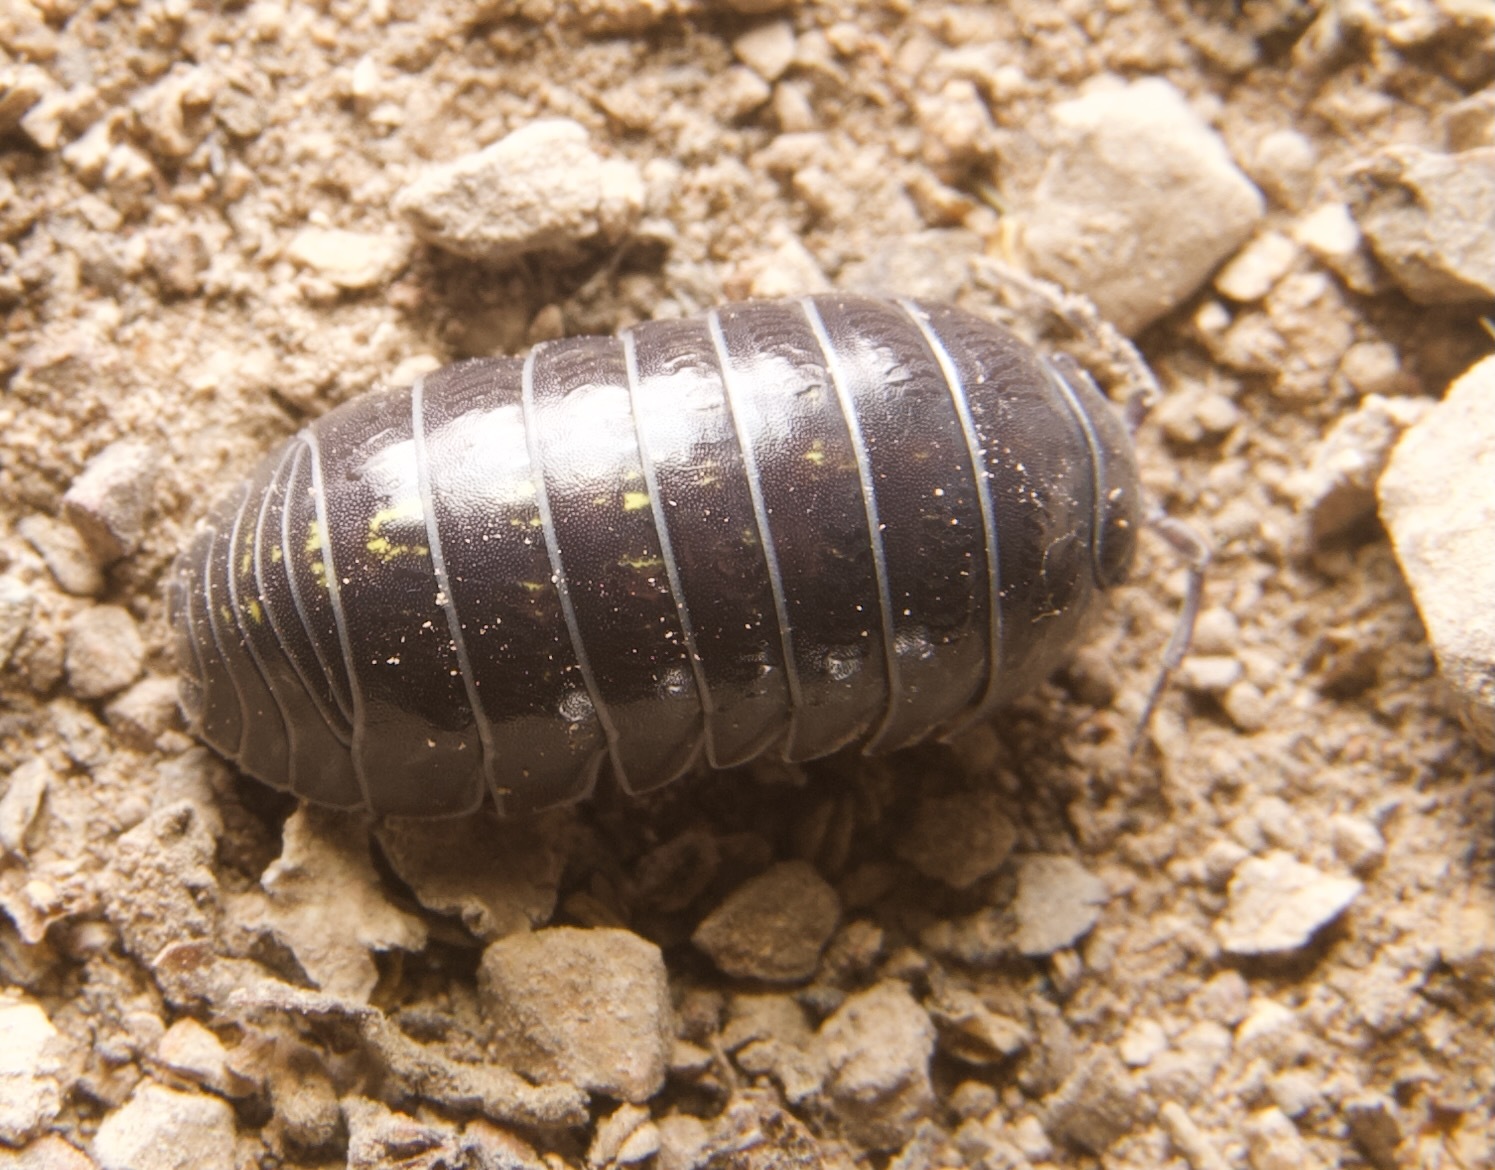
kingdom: Animalia
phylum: Arthropoda
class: Malacostraca
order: Isopoda
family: Armadillidiidae
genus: Armadillidium
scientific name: Armadillidium vulgare
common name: Common pill woodlouse
